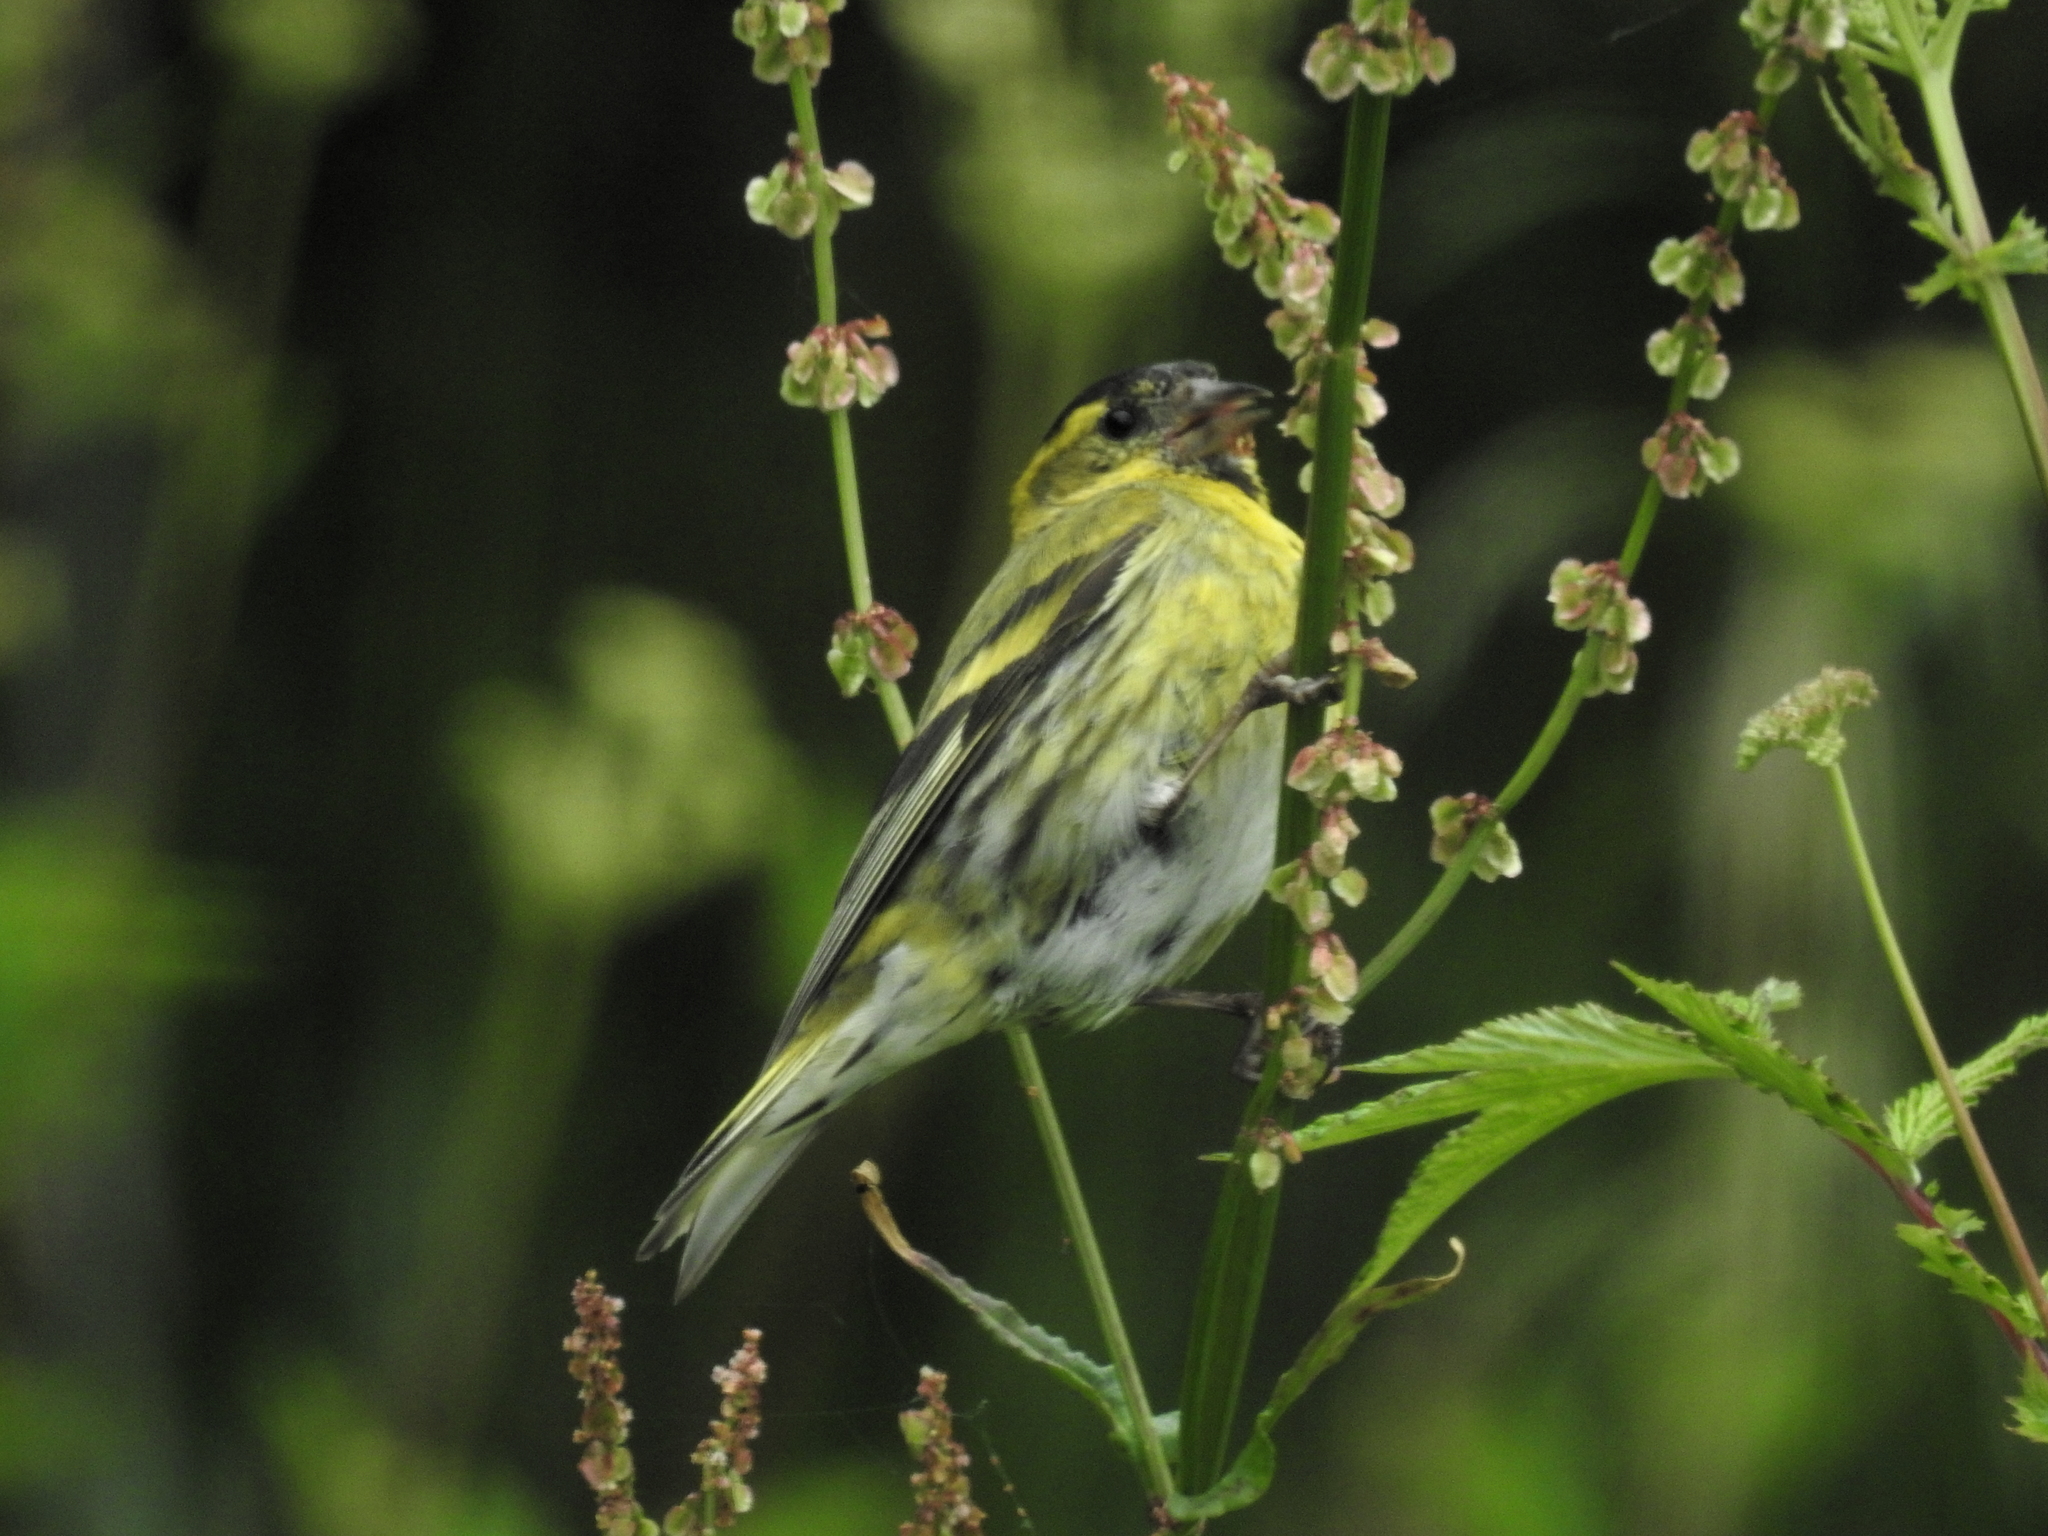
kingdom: Animalia
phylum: Chordata
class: Aves
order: Passeriformes
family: Fringillidae
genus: Spinus
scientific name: Spinus spinus
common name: Eurasian siskin
